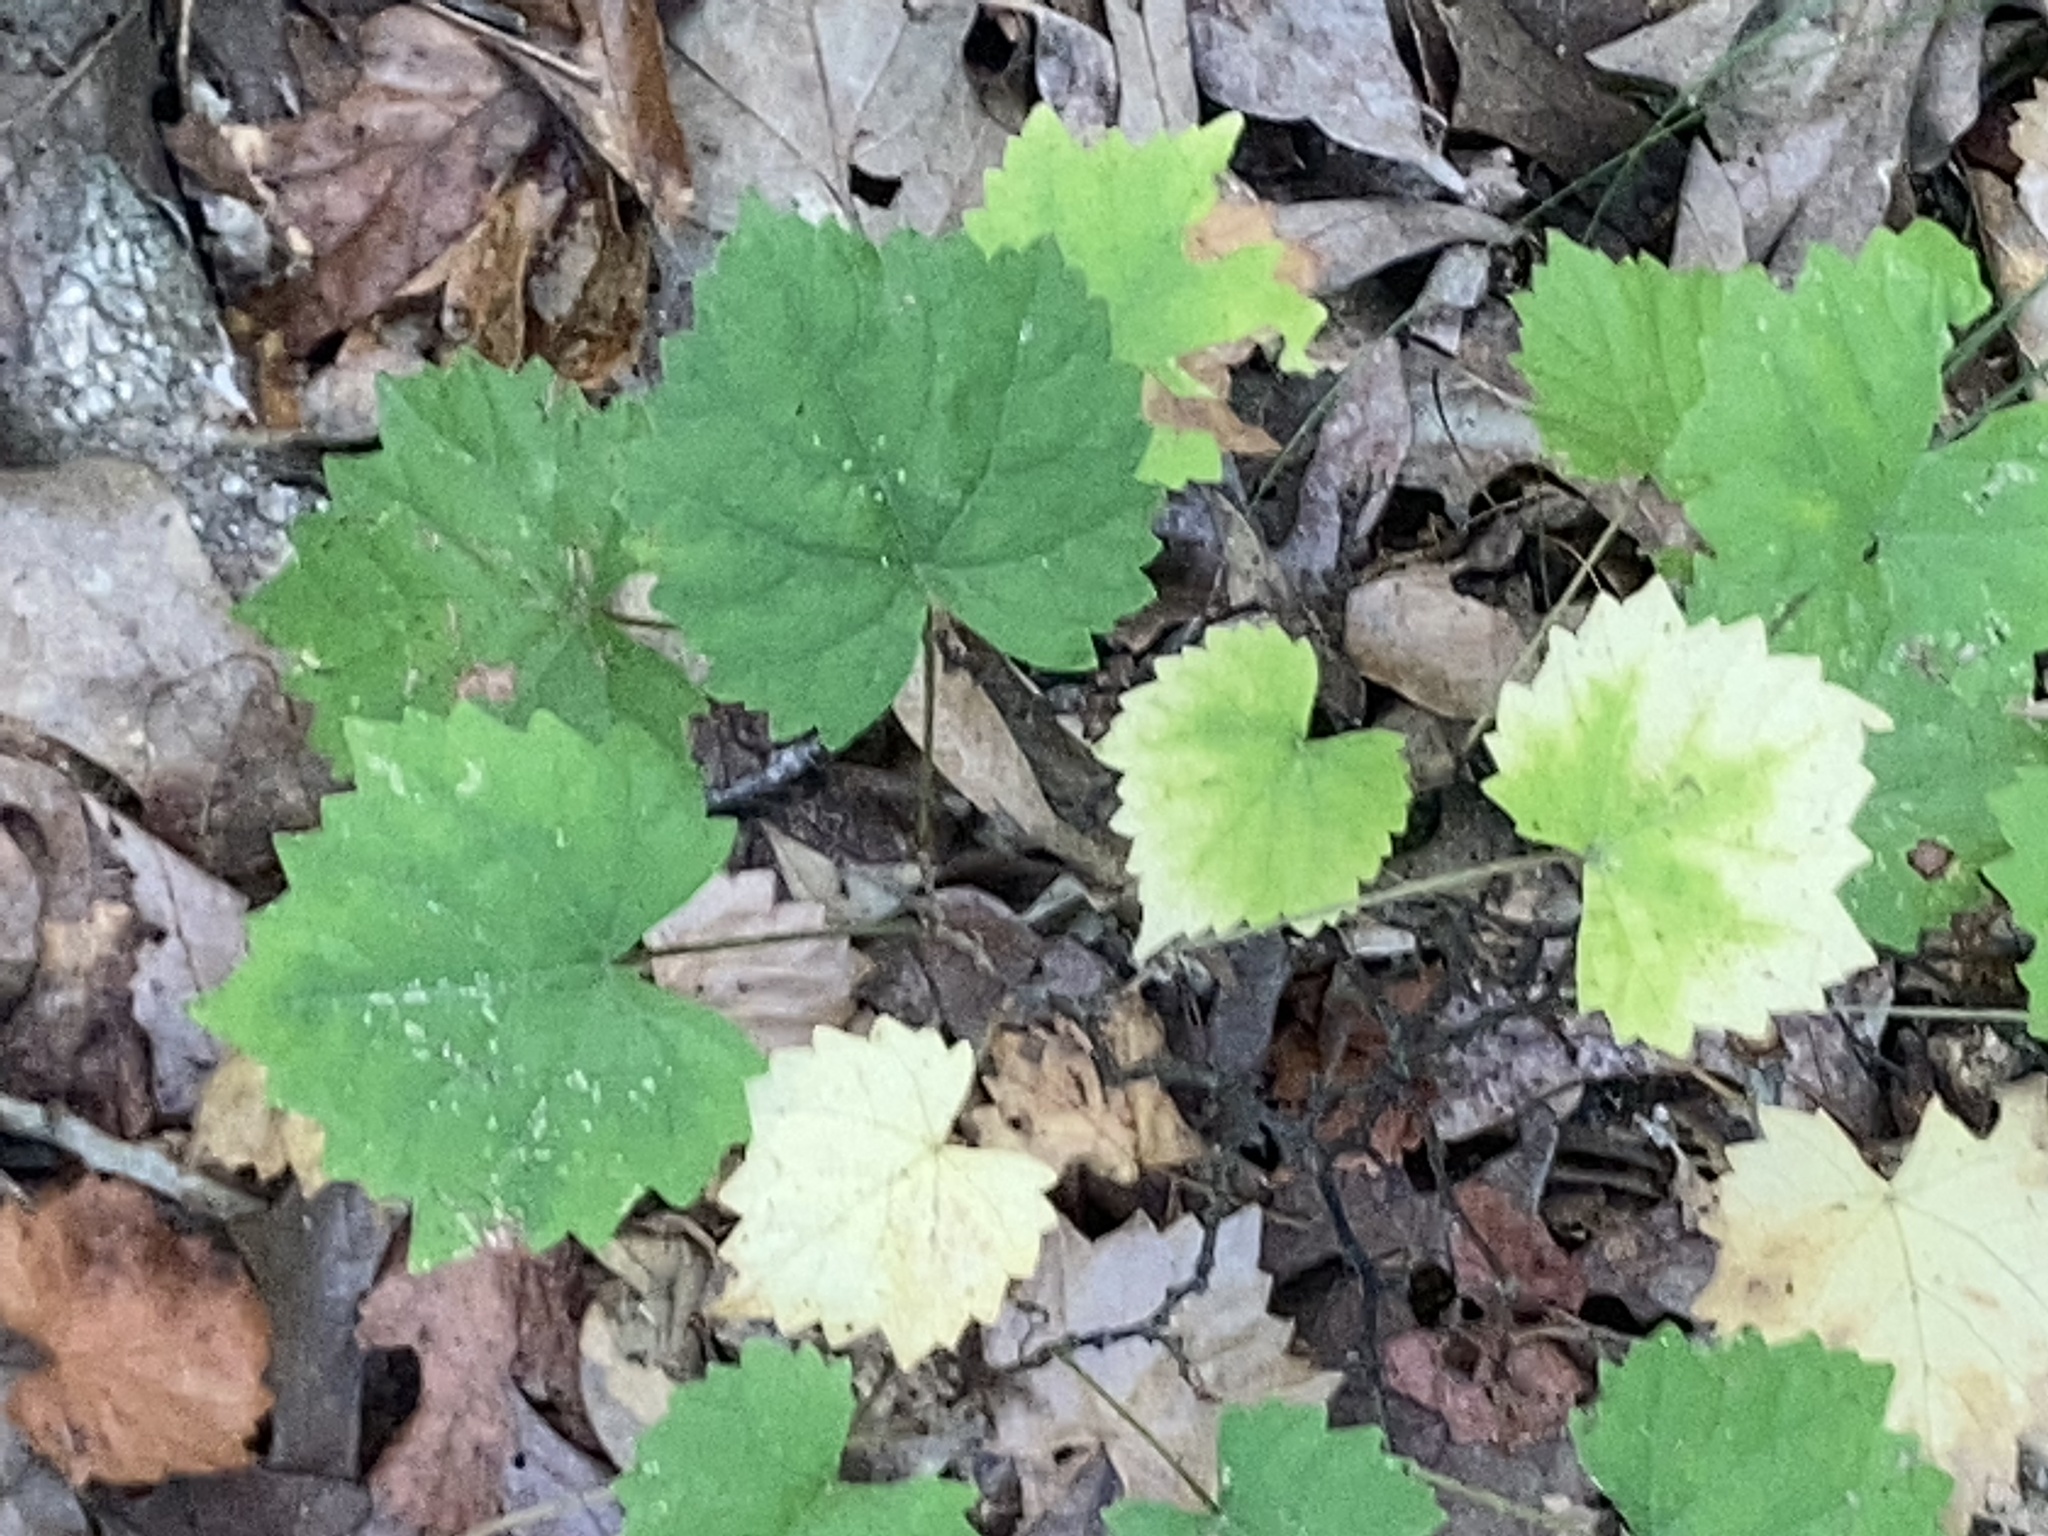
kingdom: Plantae
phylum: Tracheophyta
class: Magnoliopsida
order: Vitales
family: Vitaceae
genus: Vitis
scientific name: Vitis rotundifolia
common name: Muscadine grape
